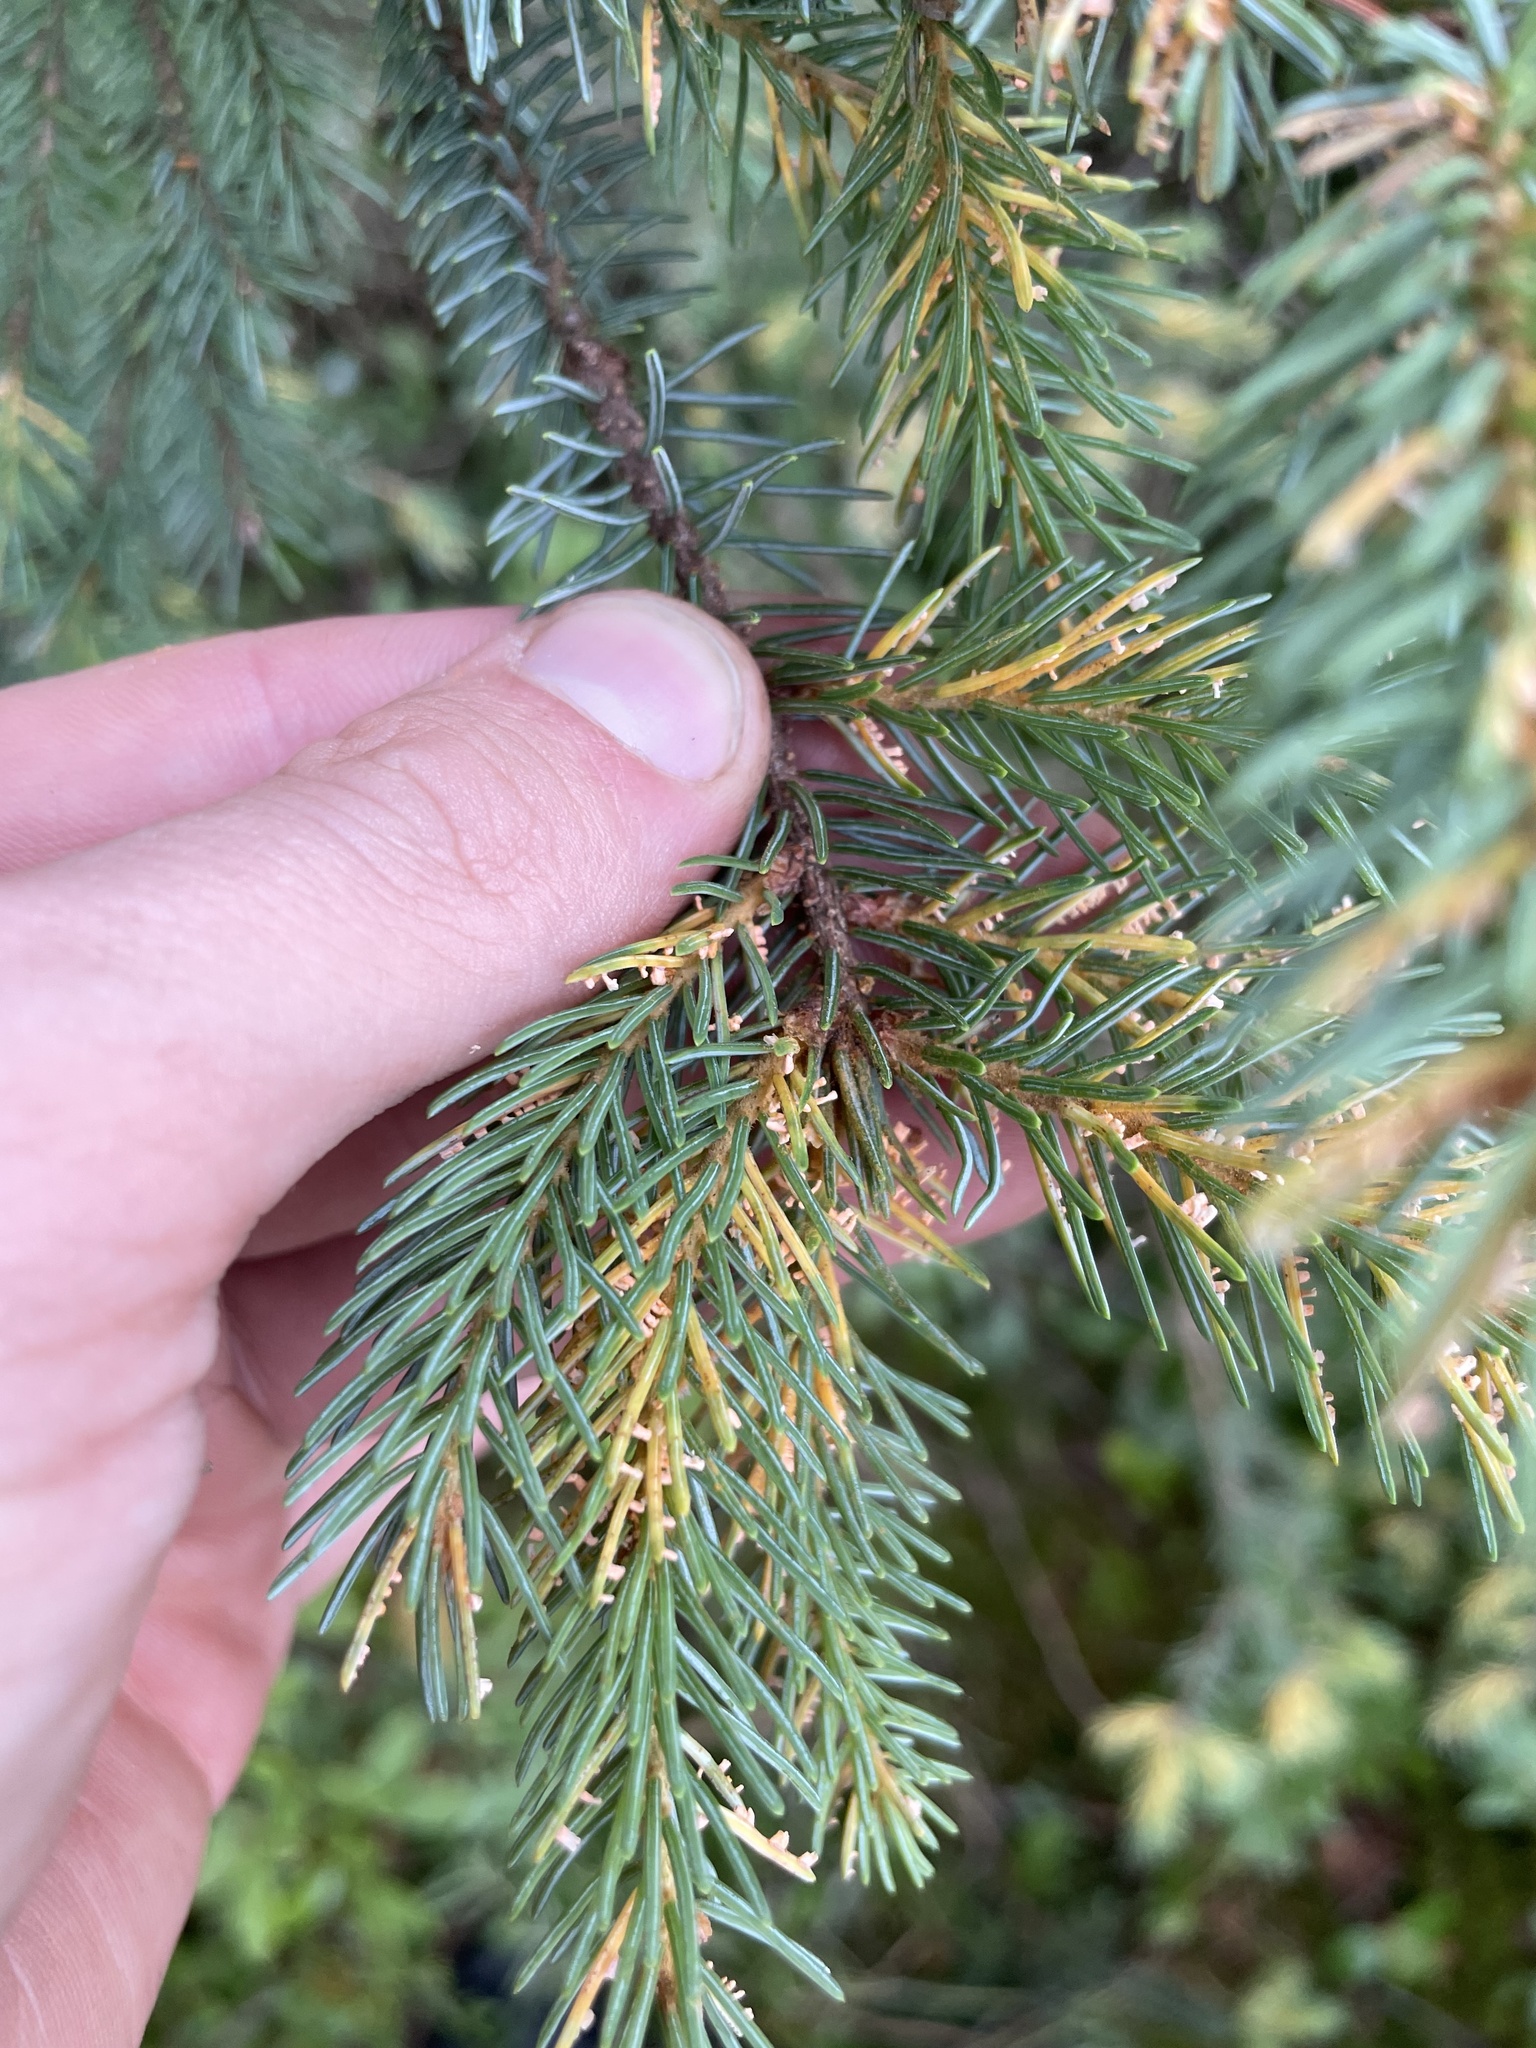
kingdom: Fungi
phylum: Basidiomycota
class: Pucciniomycetes
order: Pucciniales
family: Coleosporiaceae
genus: Chrysomyxa
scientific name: Chrysomyxa ledicola
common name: Spruce-labrador tea needle rust
